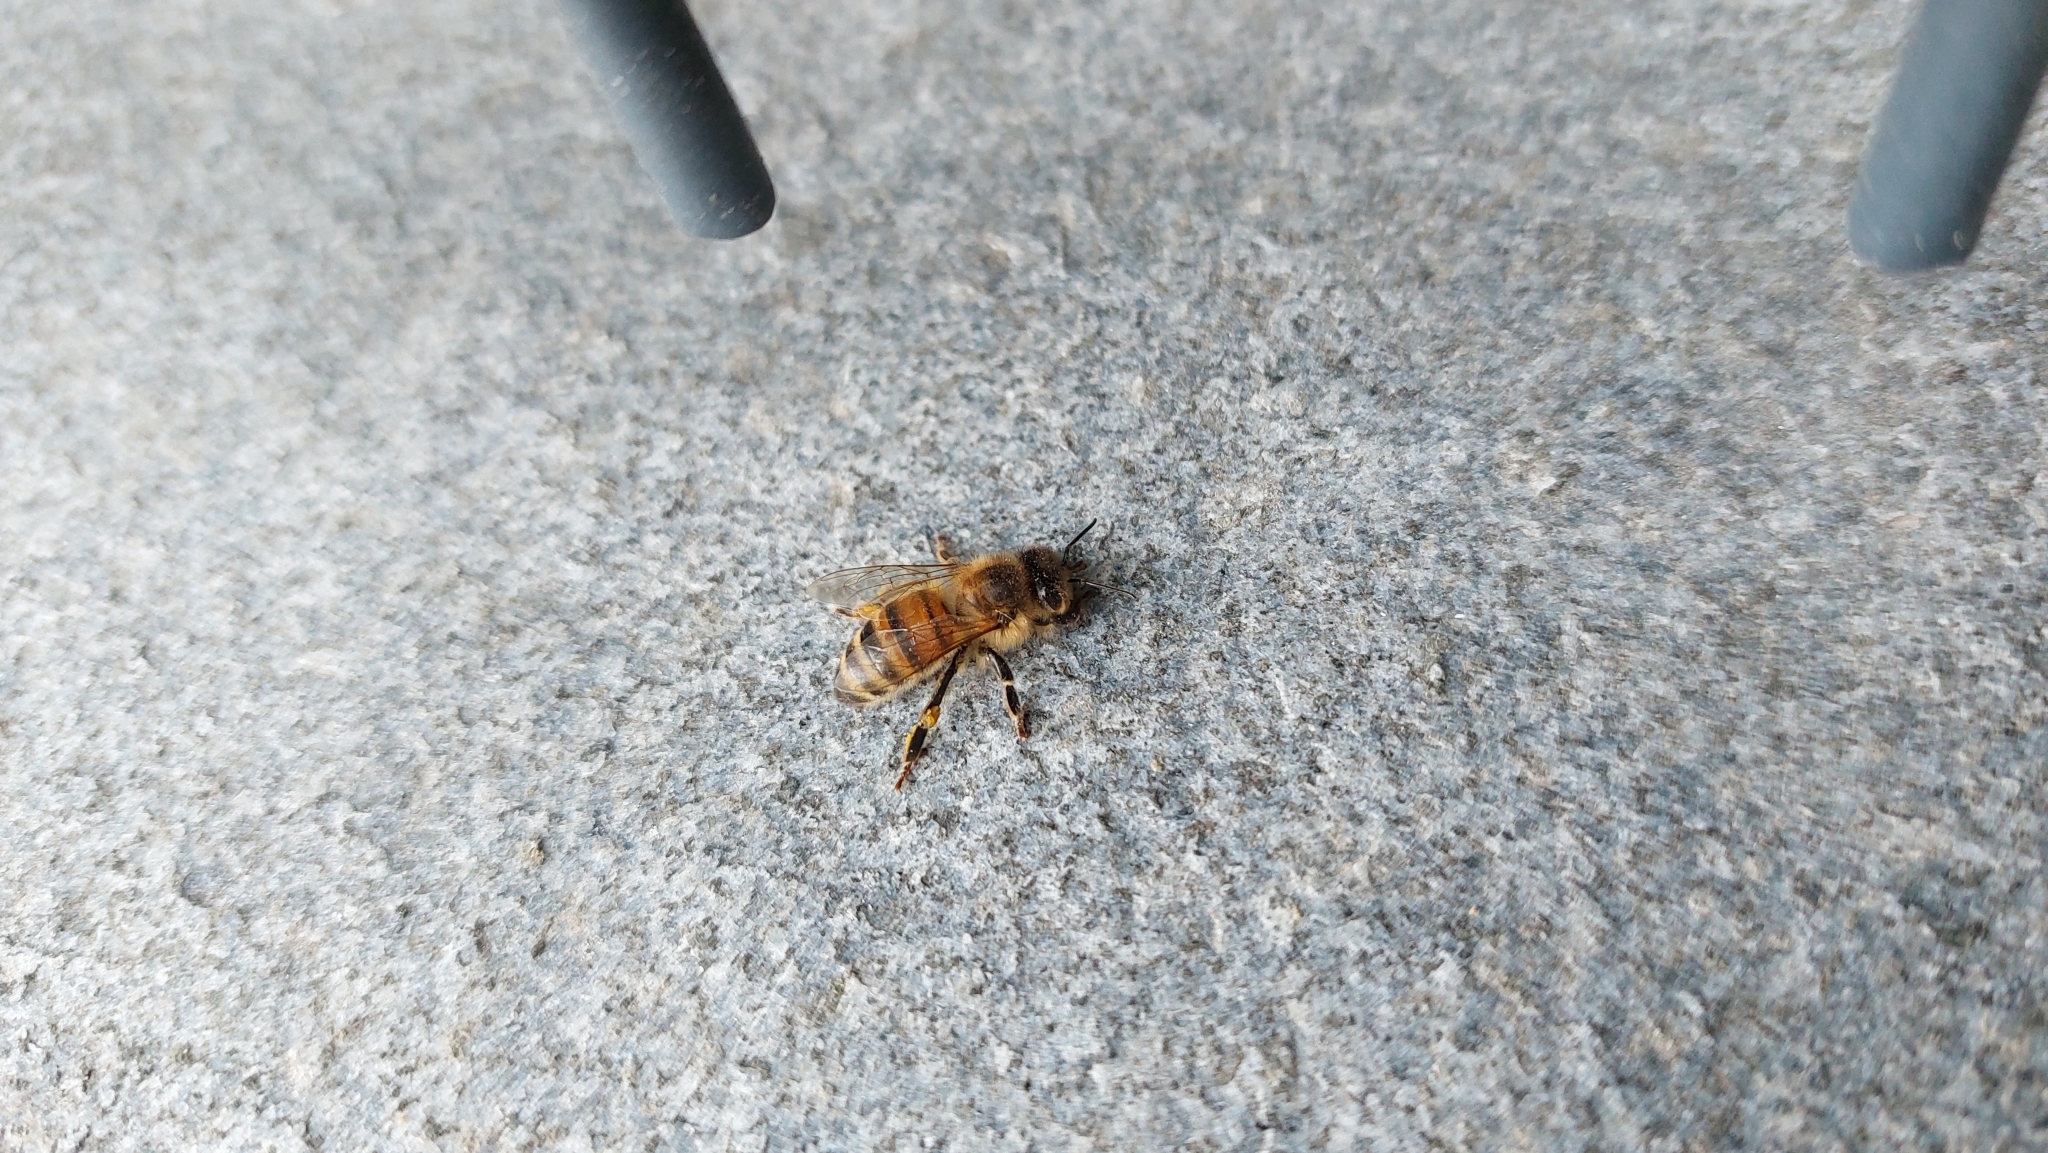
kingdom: Animalia
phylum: Arthropoda
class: Insecta
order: Hymenoptera
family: Apidae
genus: Apis
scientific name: Apis mellifera
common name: Honey bee
